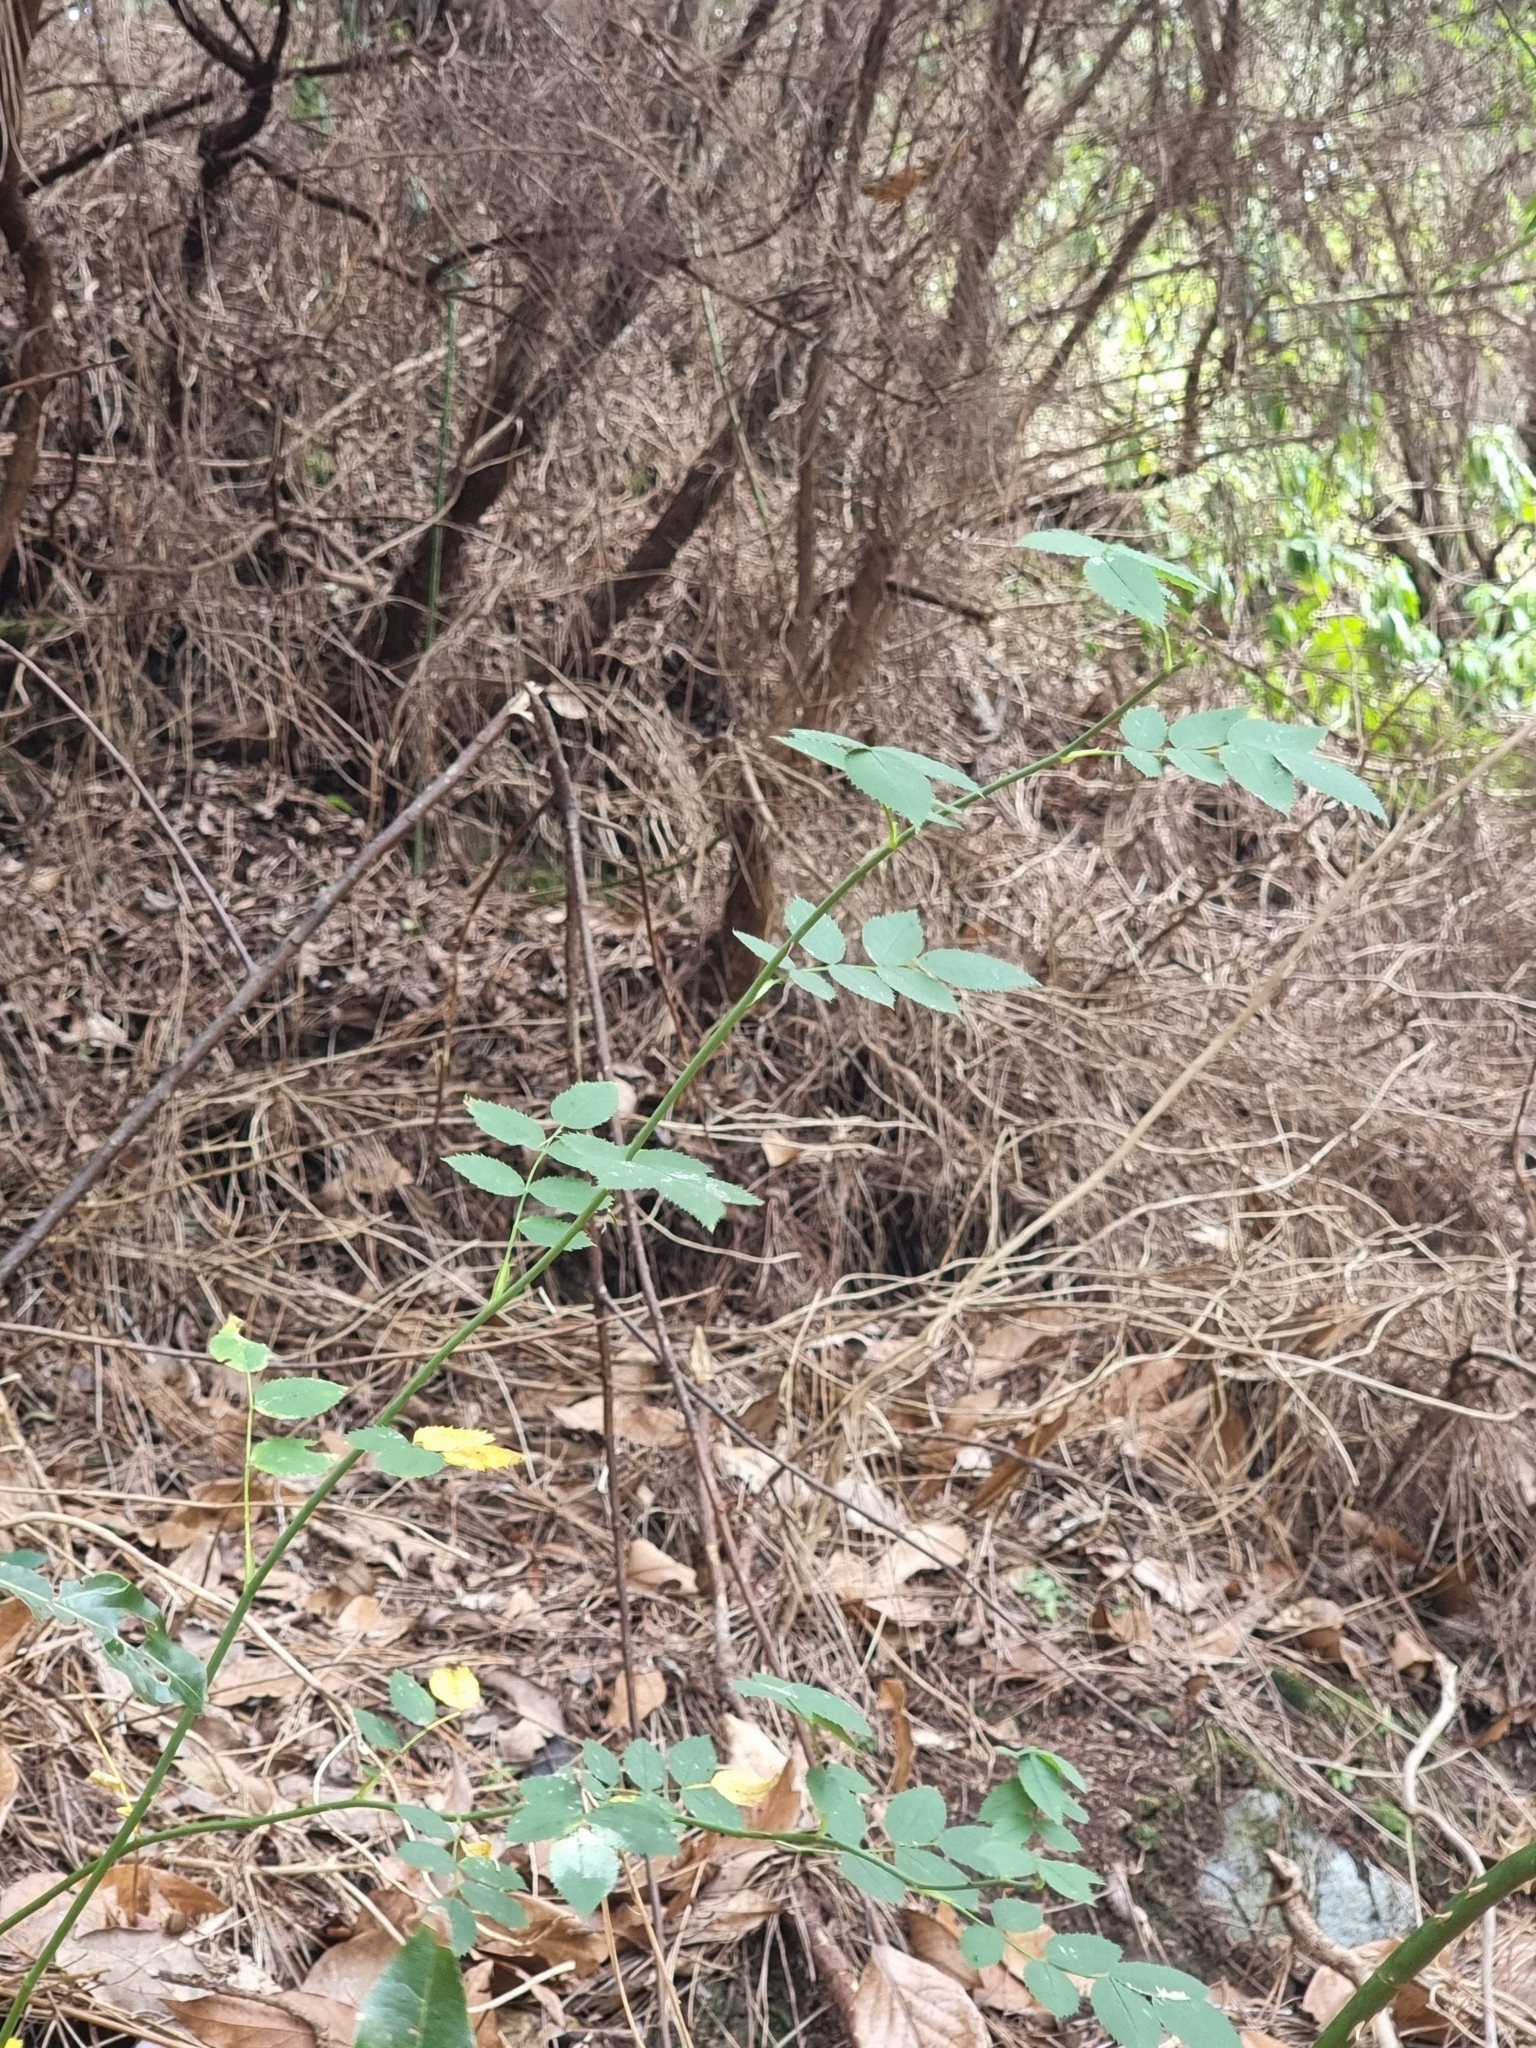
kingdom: Plantae
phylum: Tracheophyta
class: Magnoliopsida
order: Rosales
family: Rosaceae
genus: Rosa
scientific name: Rosa canina
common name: Dog rose
